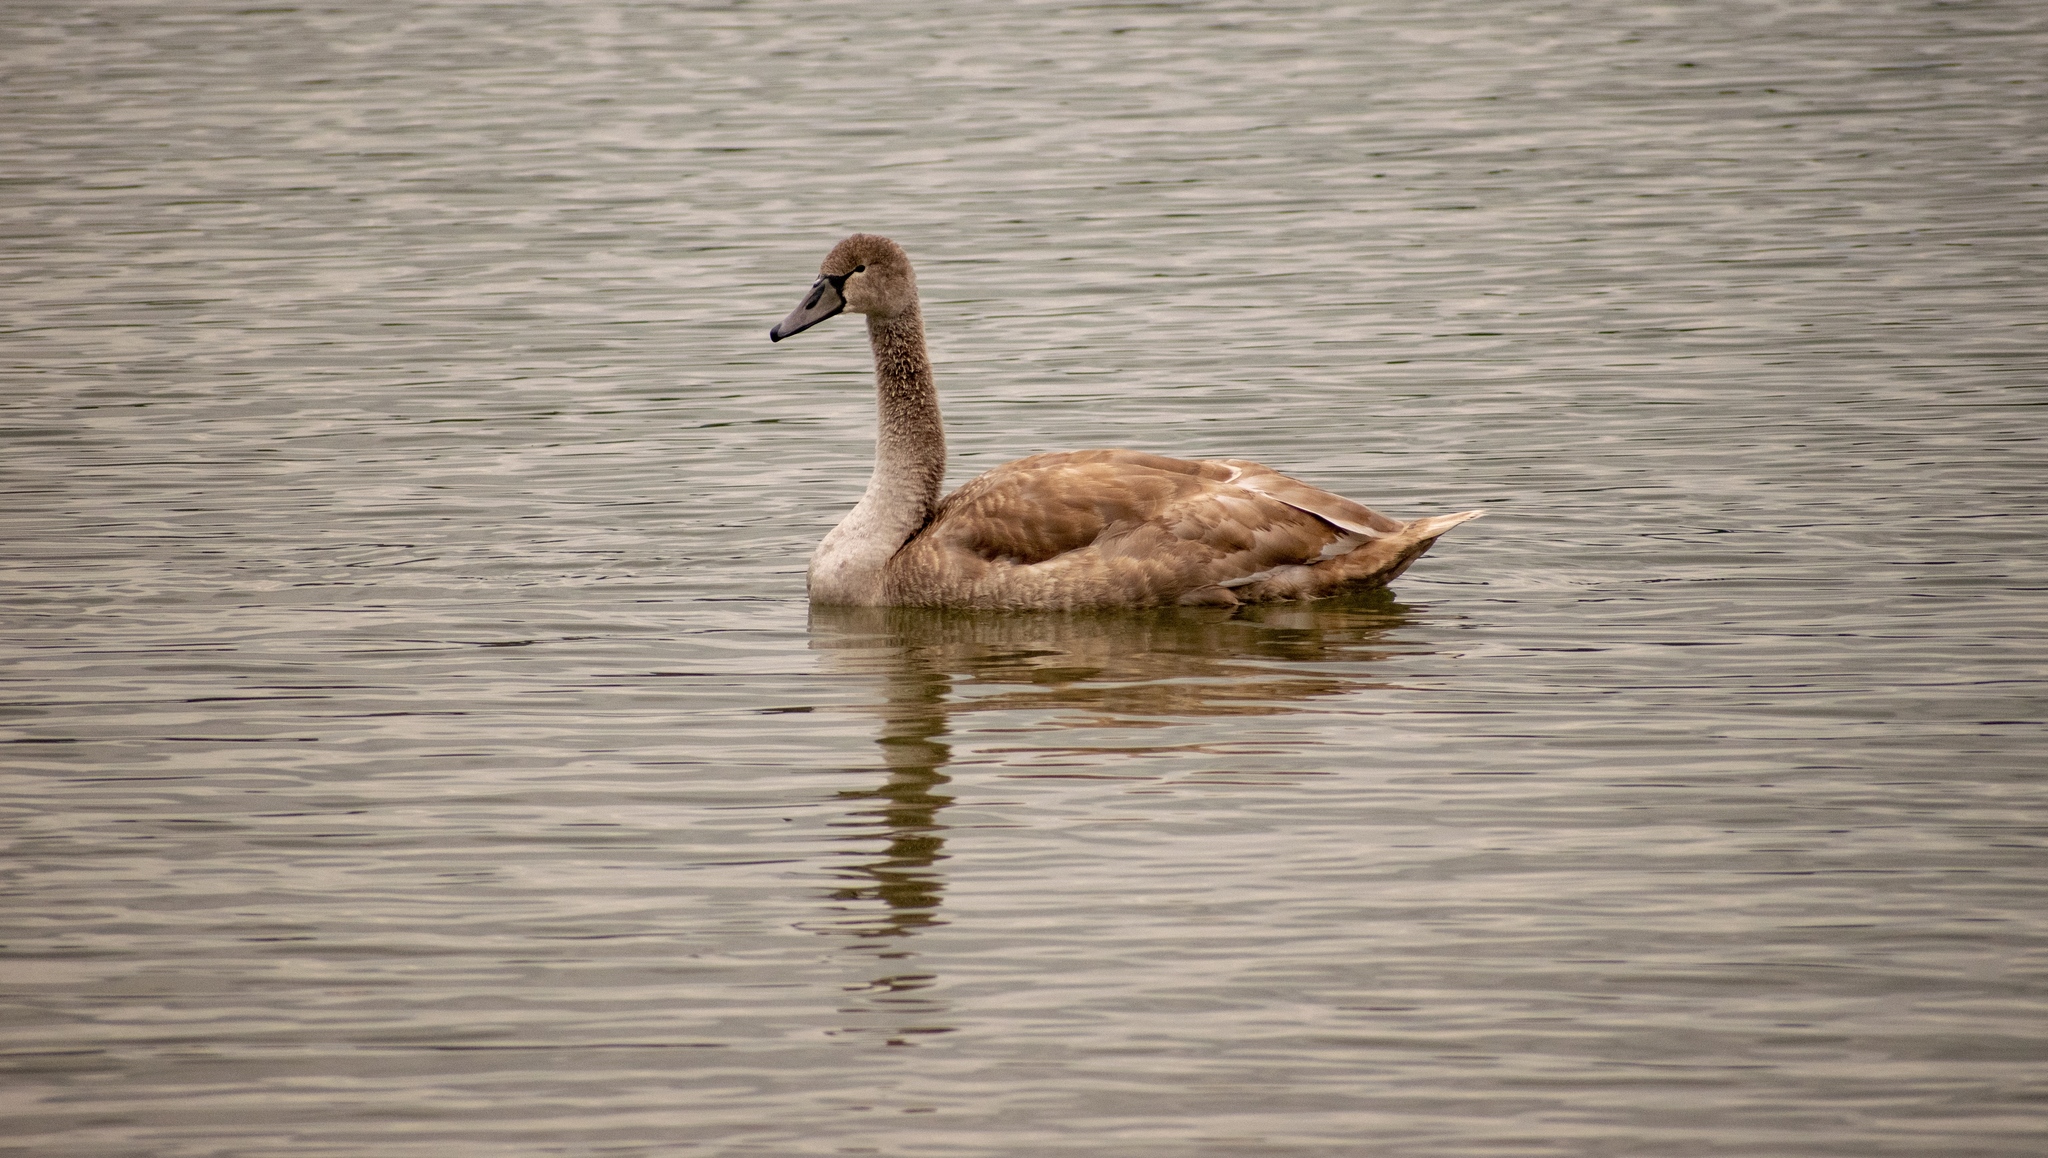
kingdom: Animalia
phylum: Chordata
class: Aves
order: Anseriformes
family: Anatidae
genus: Cygnus
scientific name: Cygnus olor
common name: Mute swan
